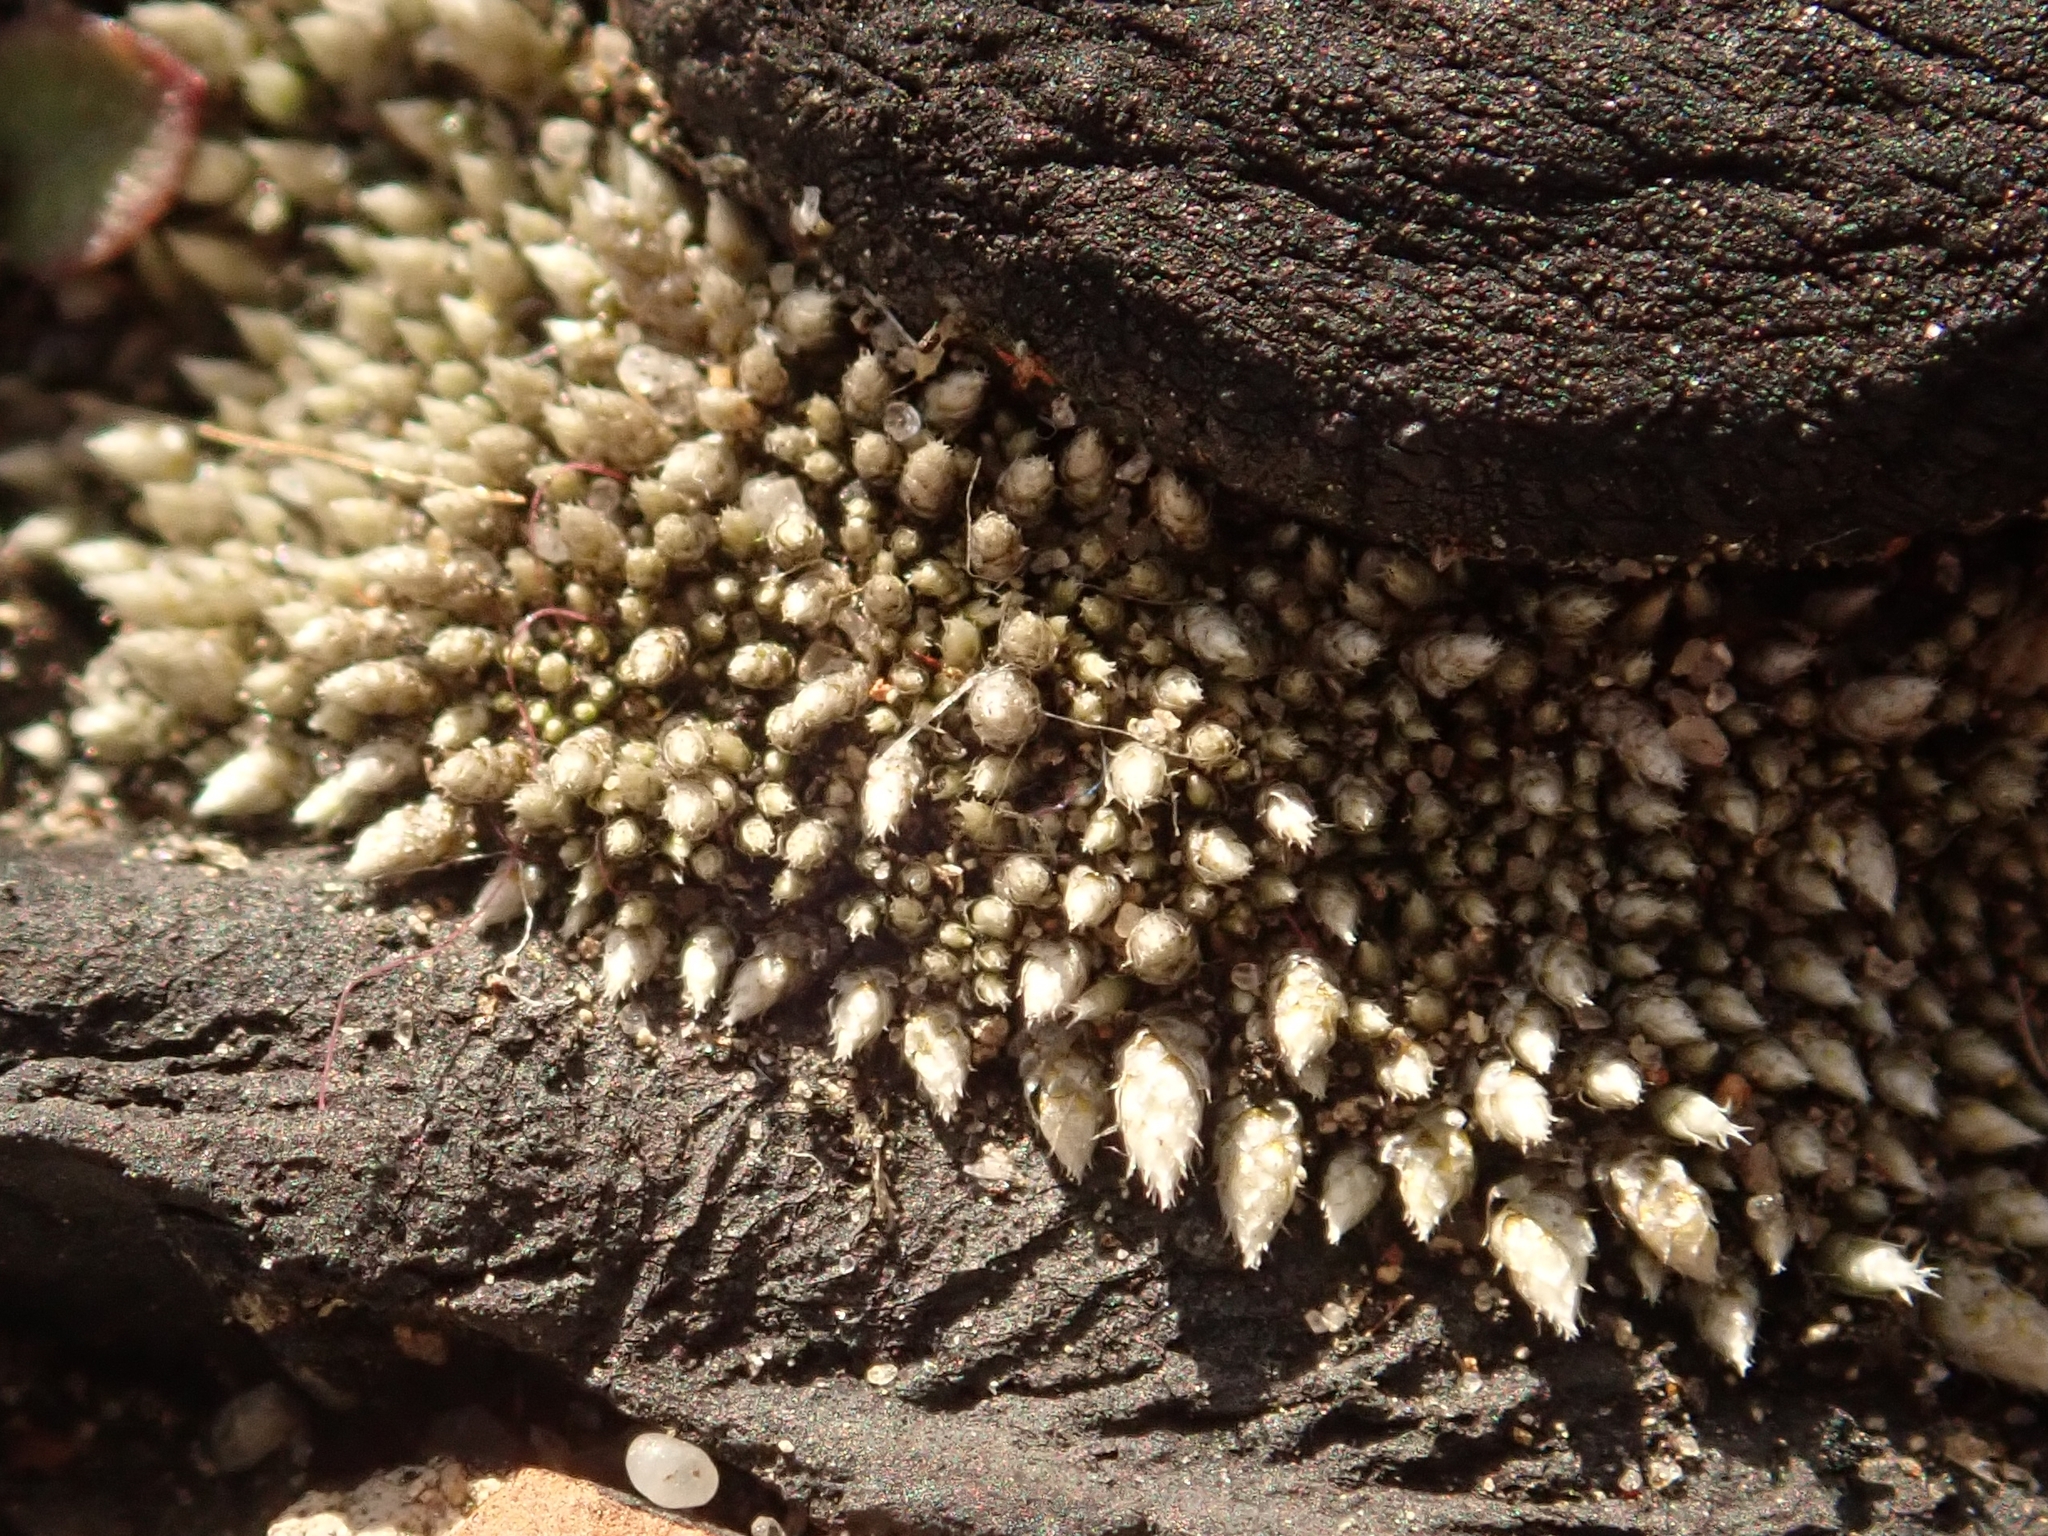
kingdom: Plantae
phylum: Bryophyta
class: Bryopsida
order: Bryales
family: Bryaceae
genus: Bryum
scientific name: Bryum argenteum
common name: Silver-moss
